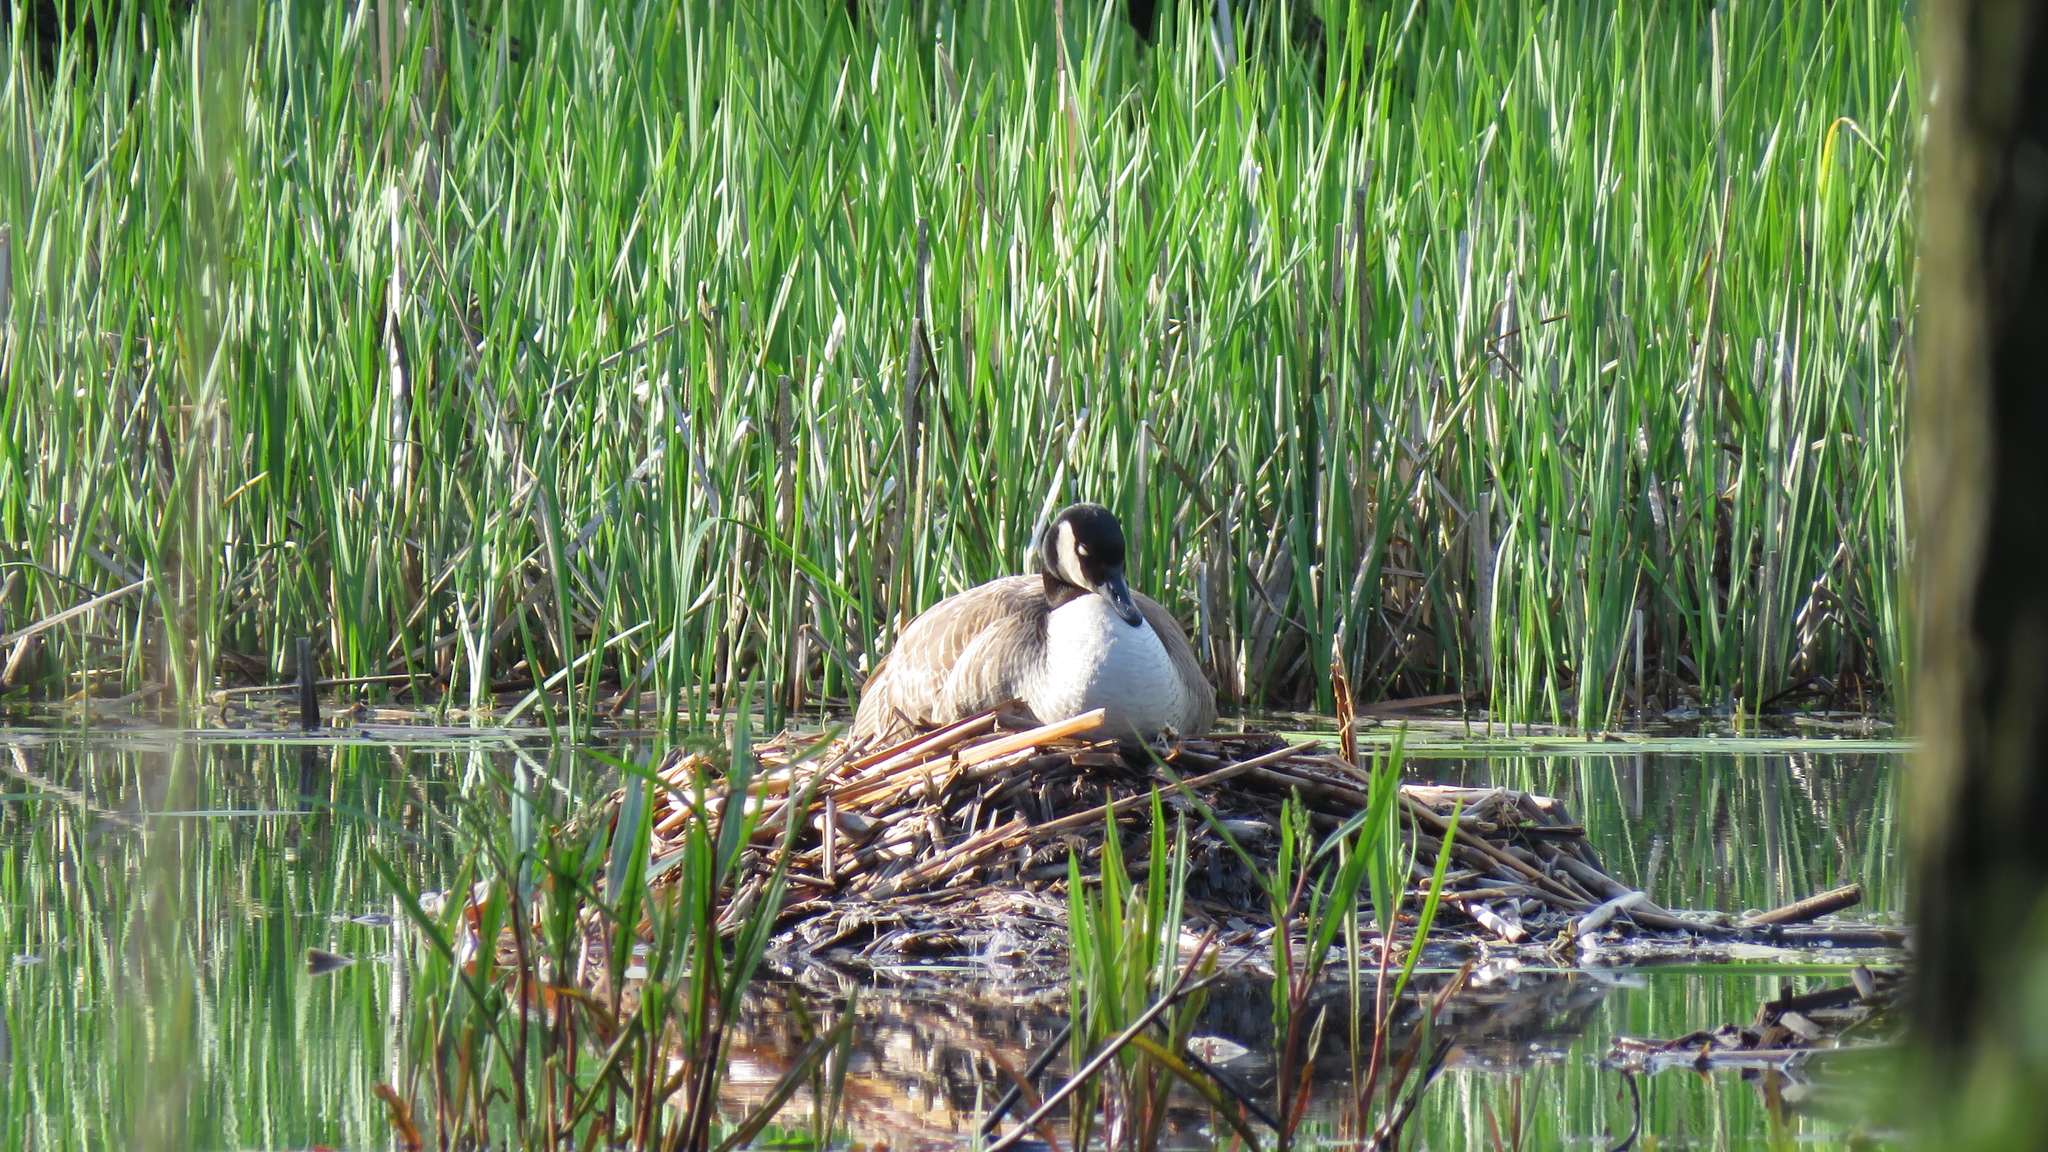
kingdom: Animalia
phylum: Chordata
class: Aves
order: Anseriformes
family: Anatidae
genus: Branta
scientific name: Branta canadensis
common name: Canada goose
